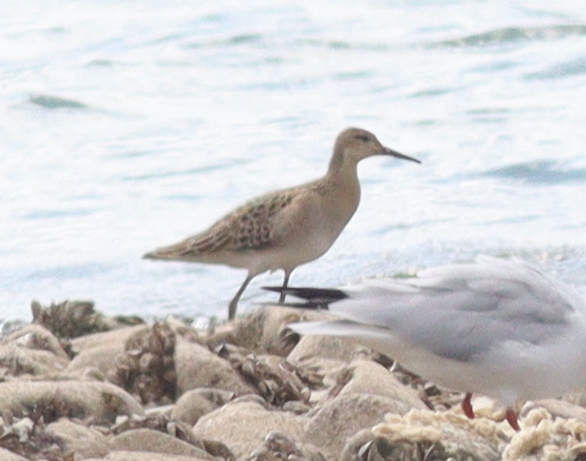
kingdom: Animalia
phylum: Chordata
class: Aves
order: Charadriiformes
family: Scolopacidae
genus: Calidris
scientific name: Calidris pugnax
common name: Ruff
